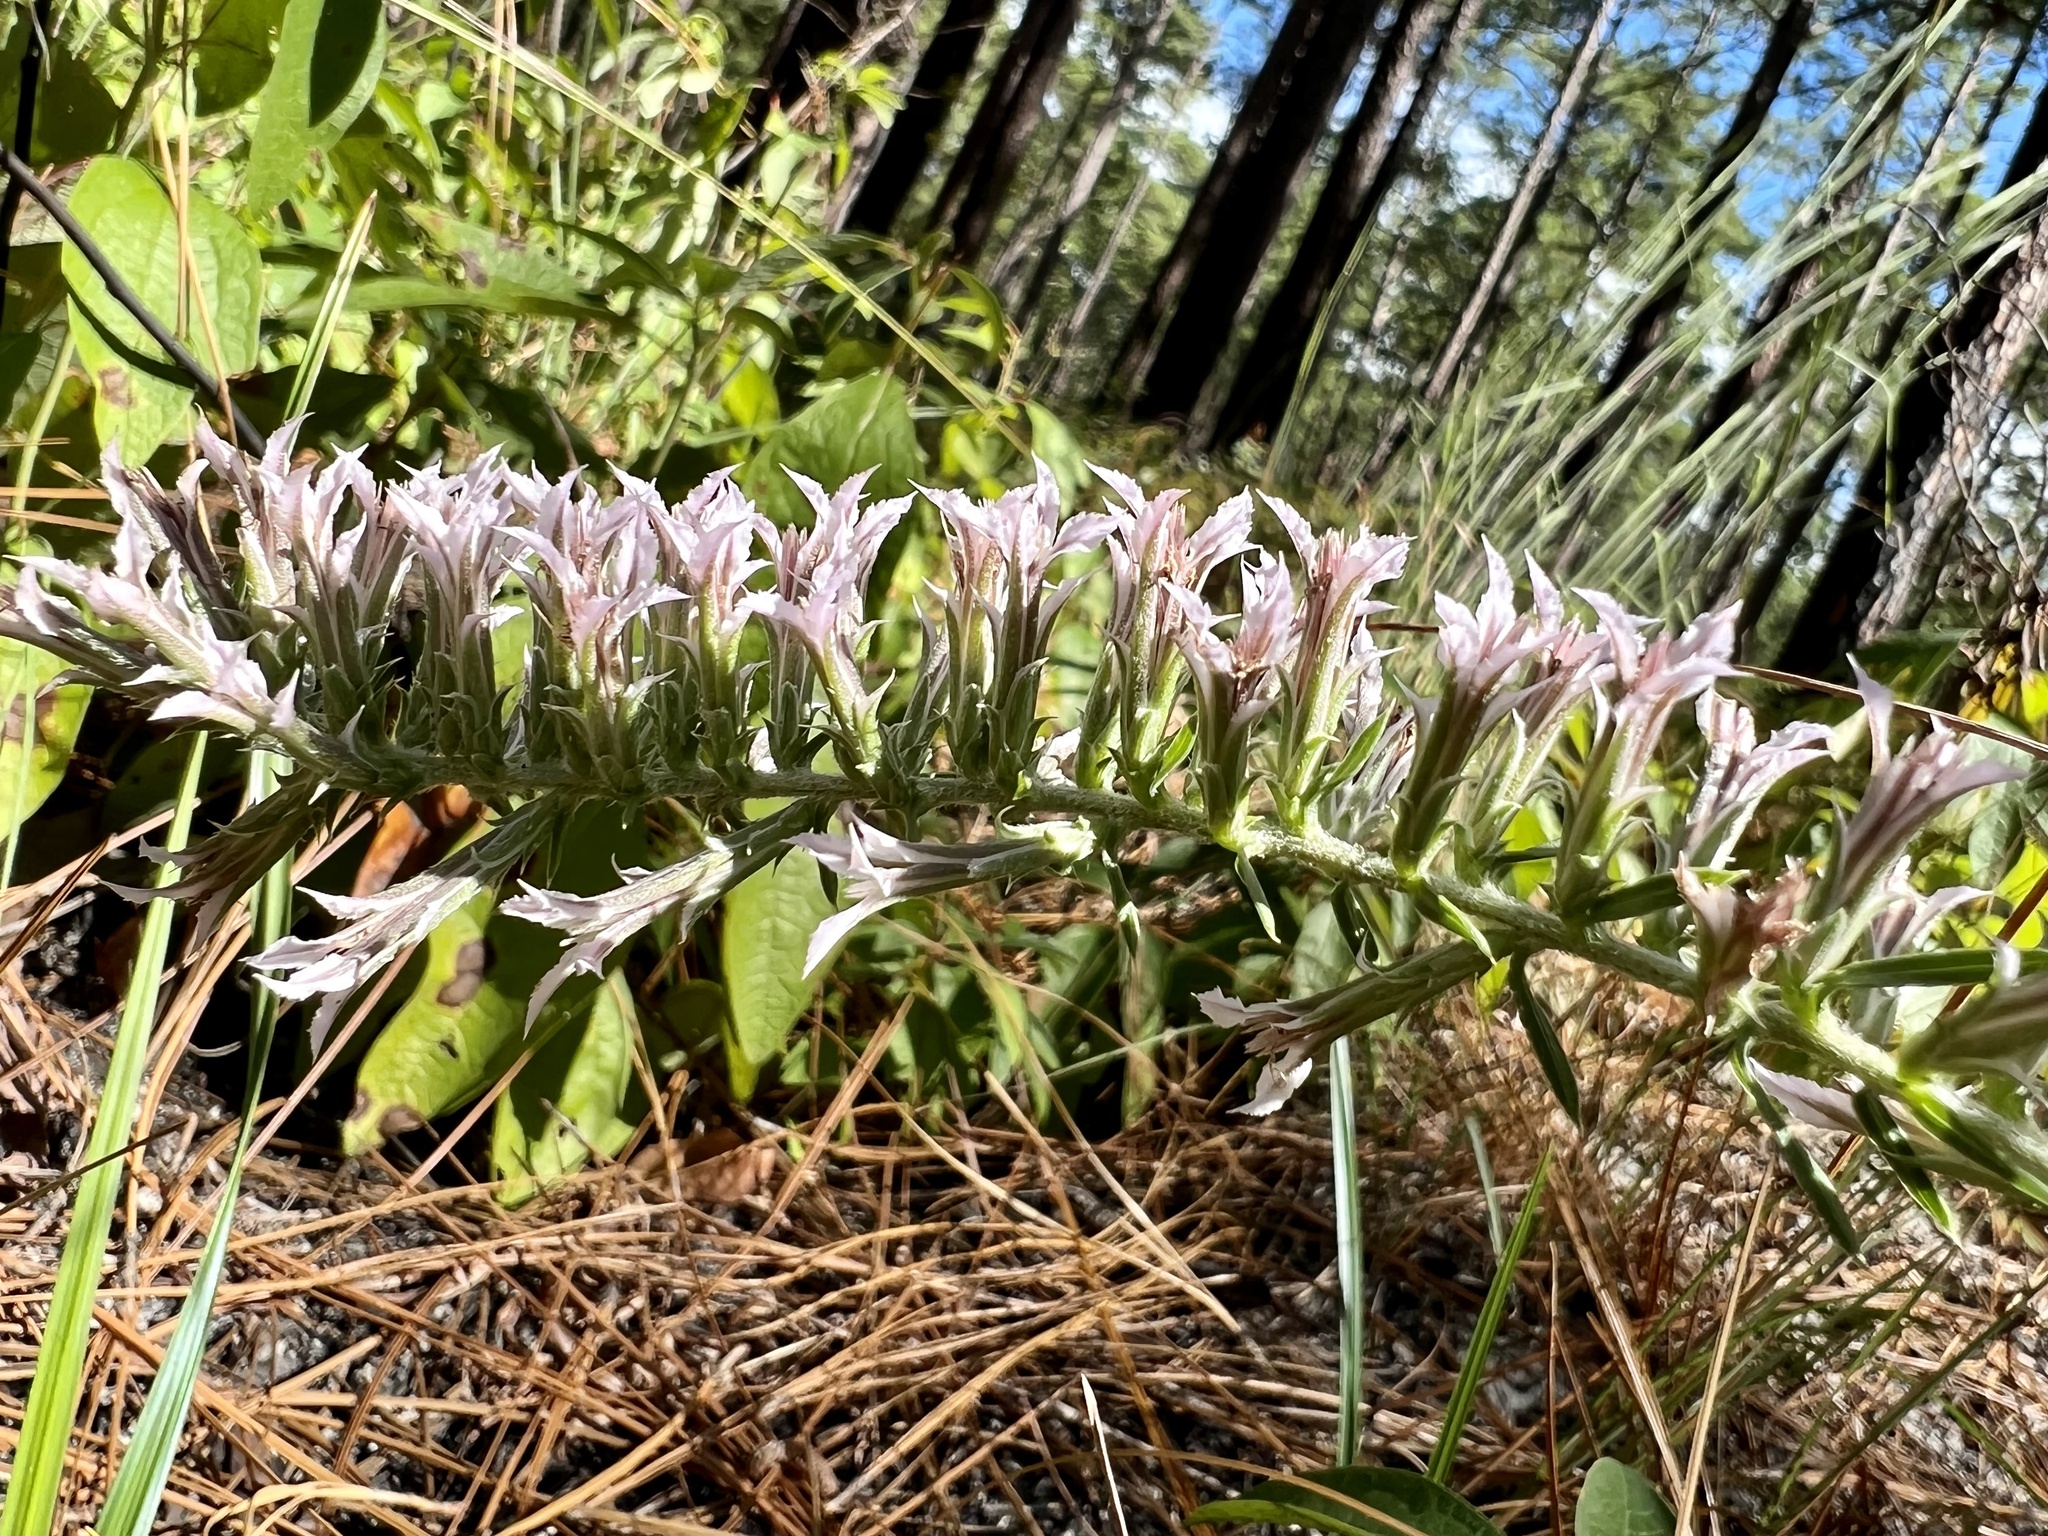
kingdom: Plantae
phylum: Tracheophyta
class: Magnoliopsida
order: Asterales
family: Asteraceae
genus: Liatris
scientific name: Liatris hesperelegans
